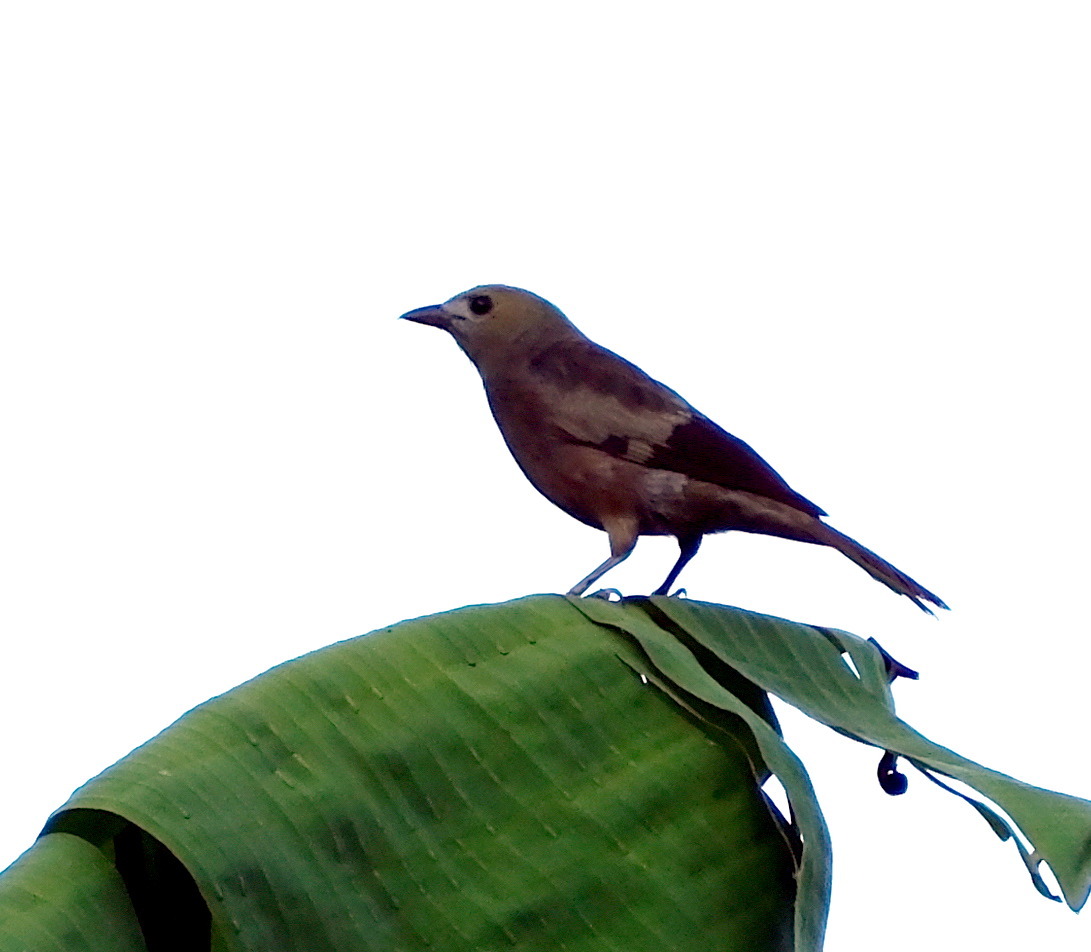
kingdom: Animalia
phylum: Chordata
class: Aves
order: Passeriformes
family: Thraupidae
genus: Thraupis
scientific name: Thraupis palmarum
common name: Palm tanager
